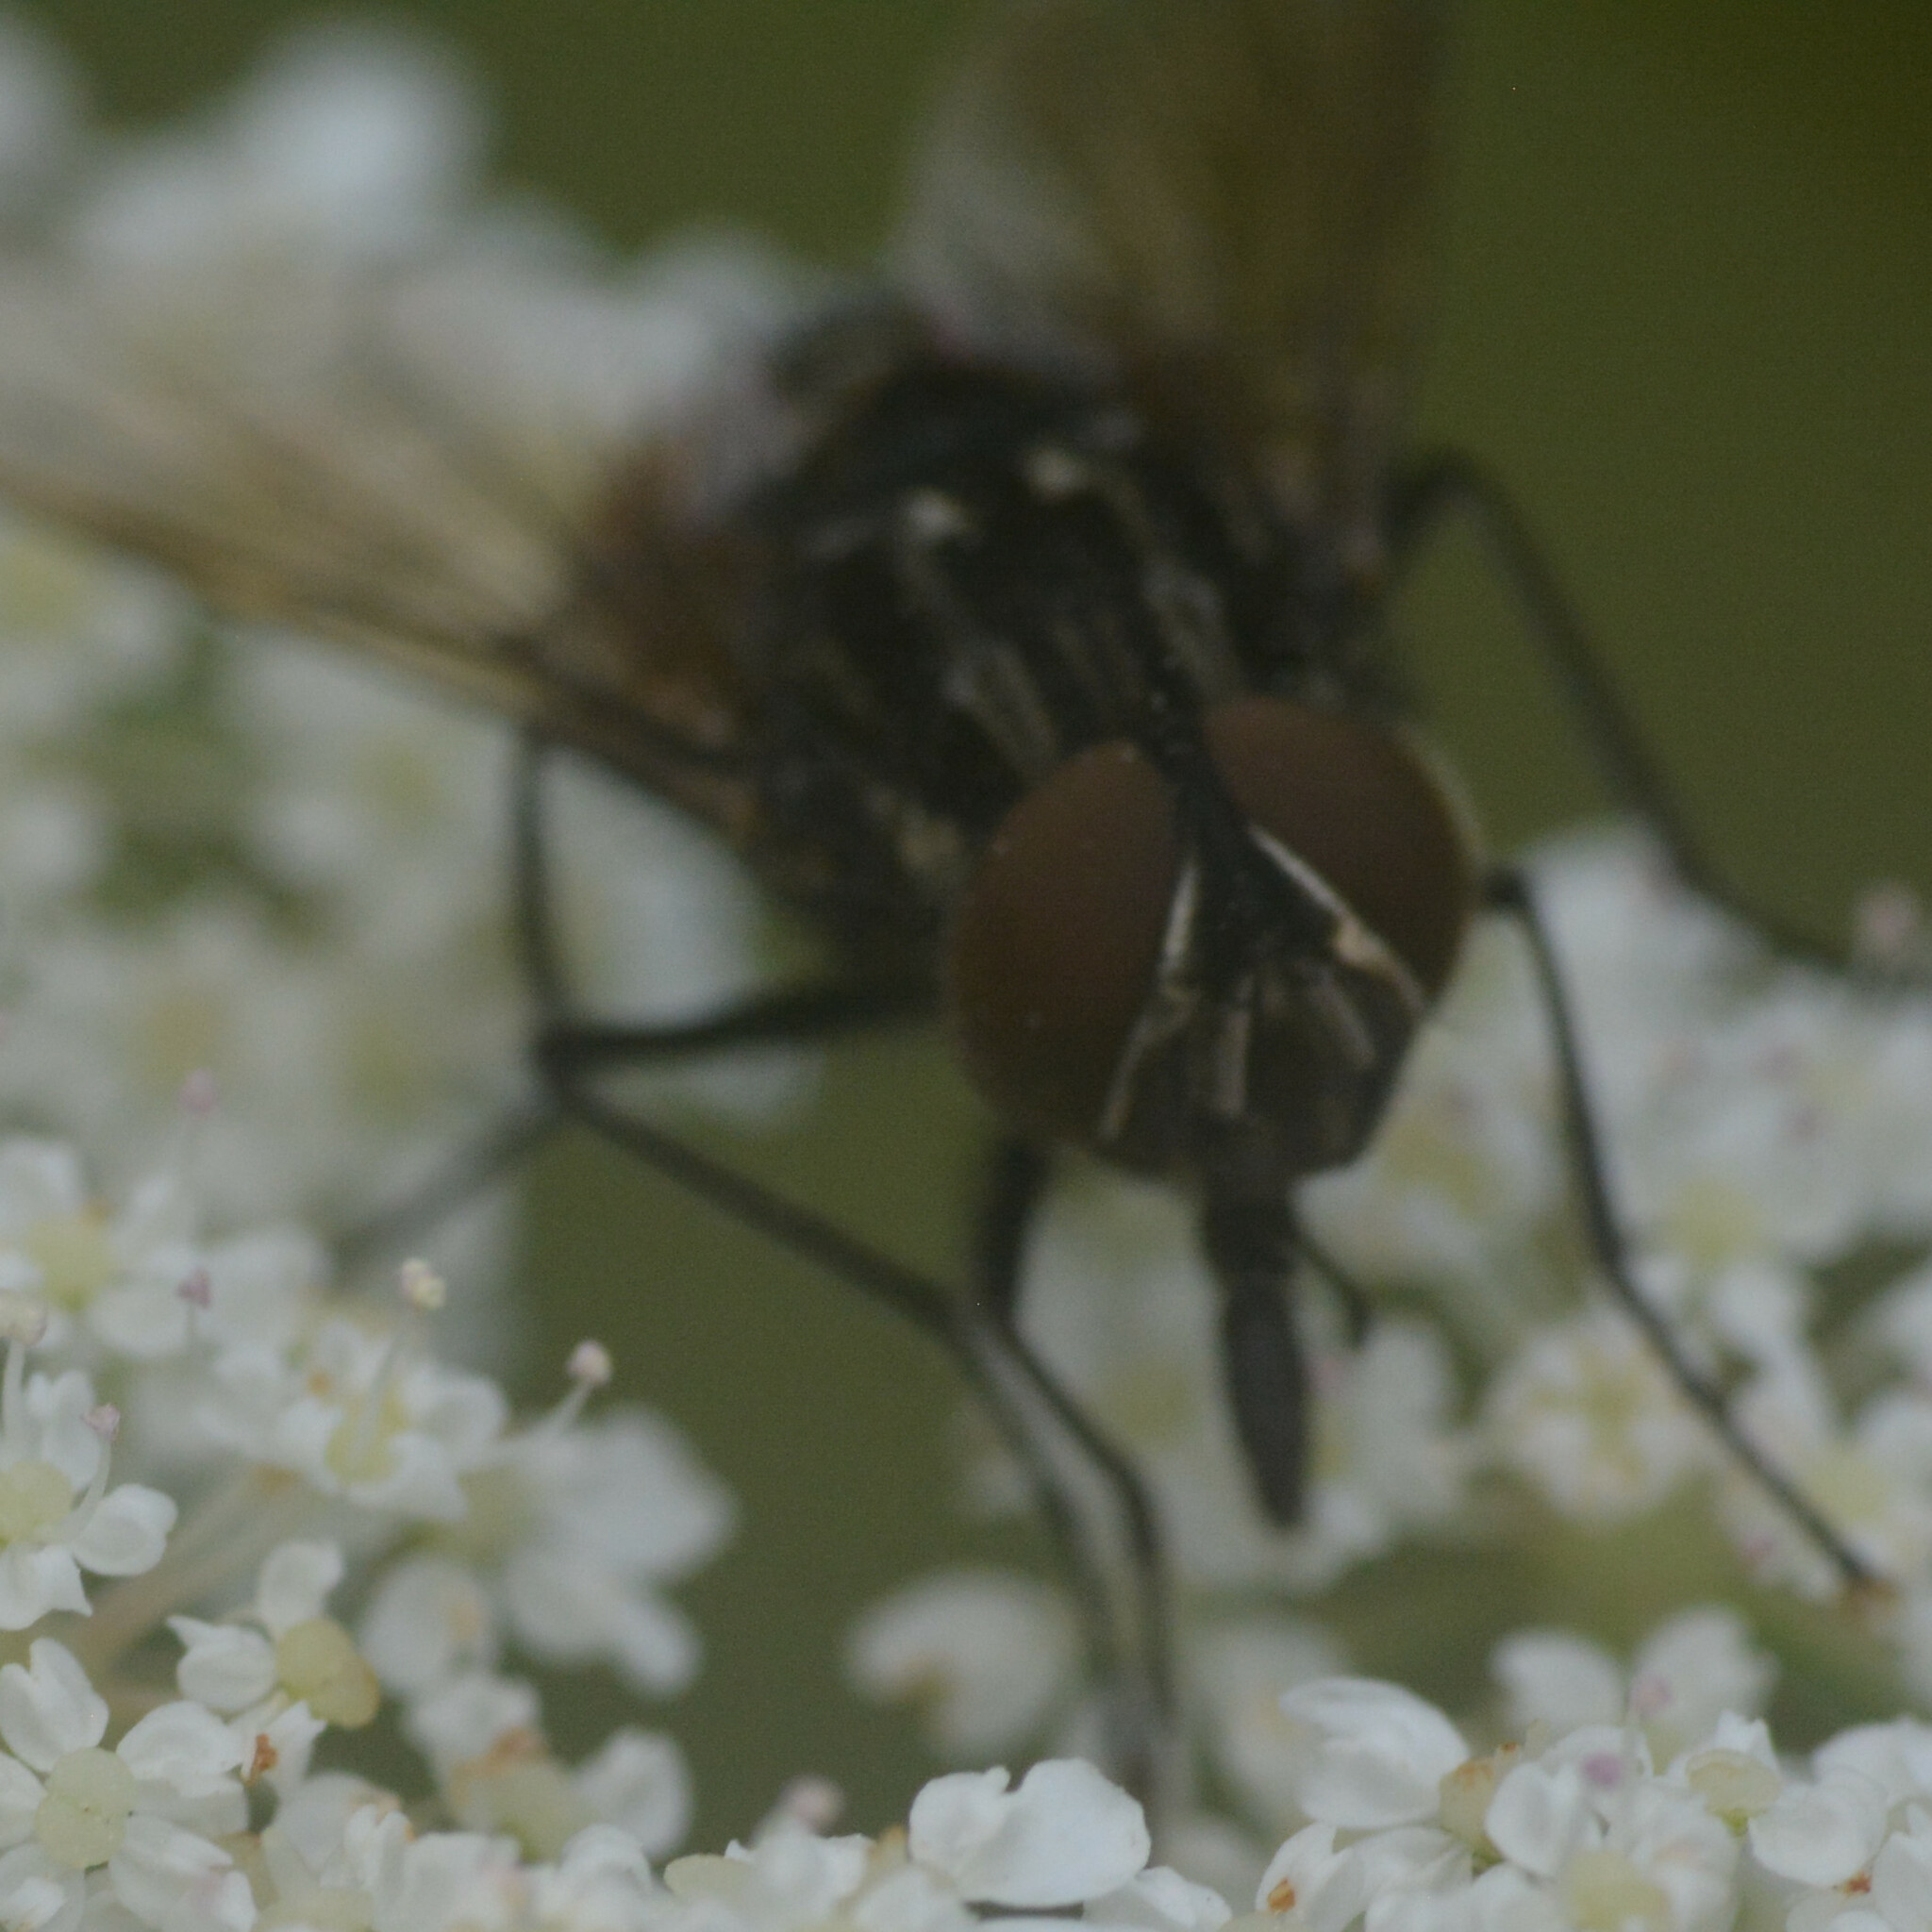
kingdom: Animalia
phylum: Arthropoda
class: Insecta
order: Diptera
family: Muscidae
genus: Graphomya
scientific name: Graphomya maculata
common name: Muscid fly
